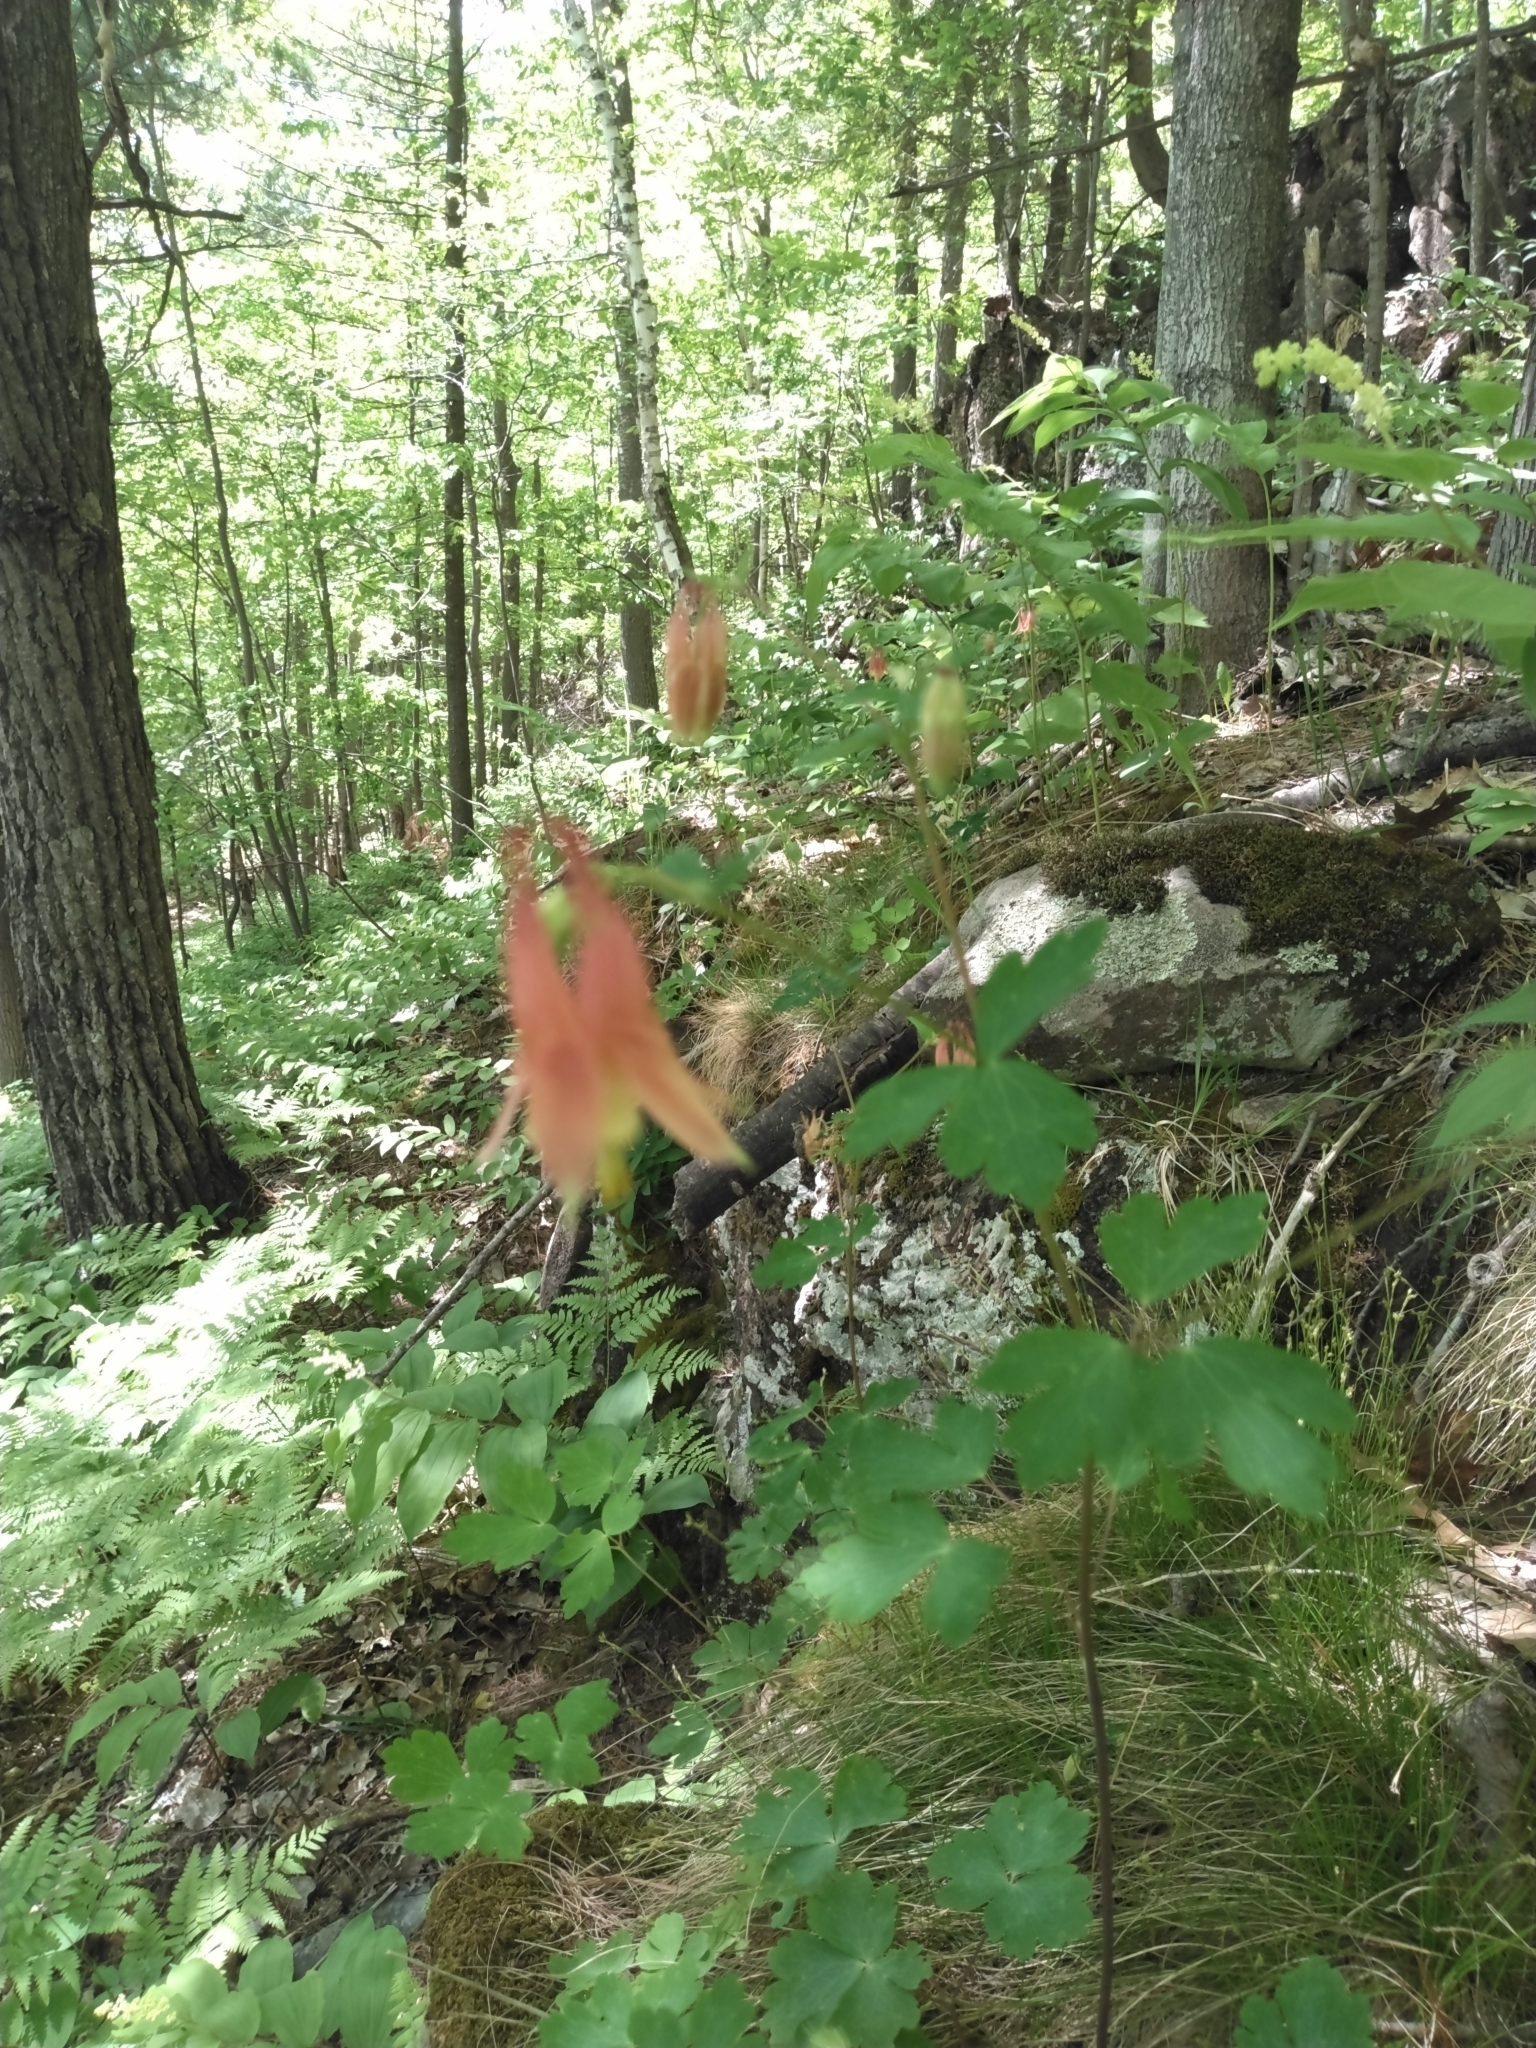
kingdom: Plantae
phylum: Tracheophyta
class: Magnoliopsida
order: Ranunculales
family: Ranunculaceae
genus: Aquilegia
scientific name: Aquilegia canadensis
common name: American columbine
